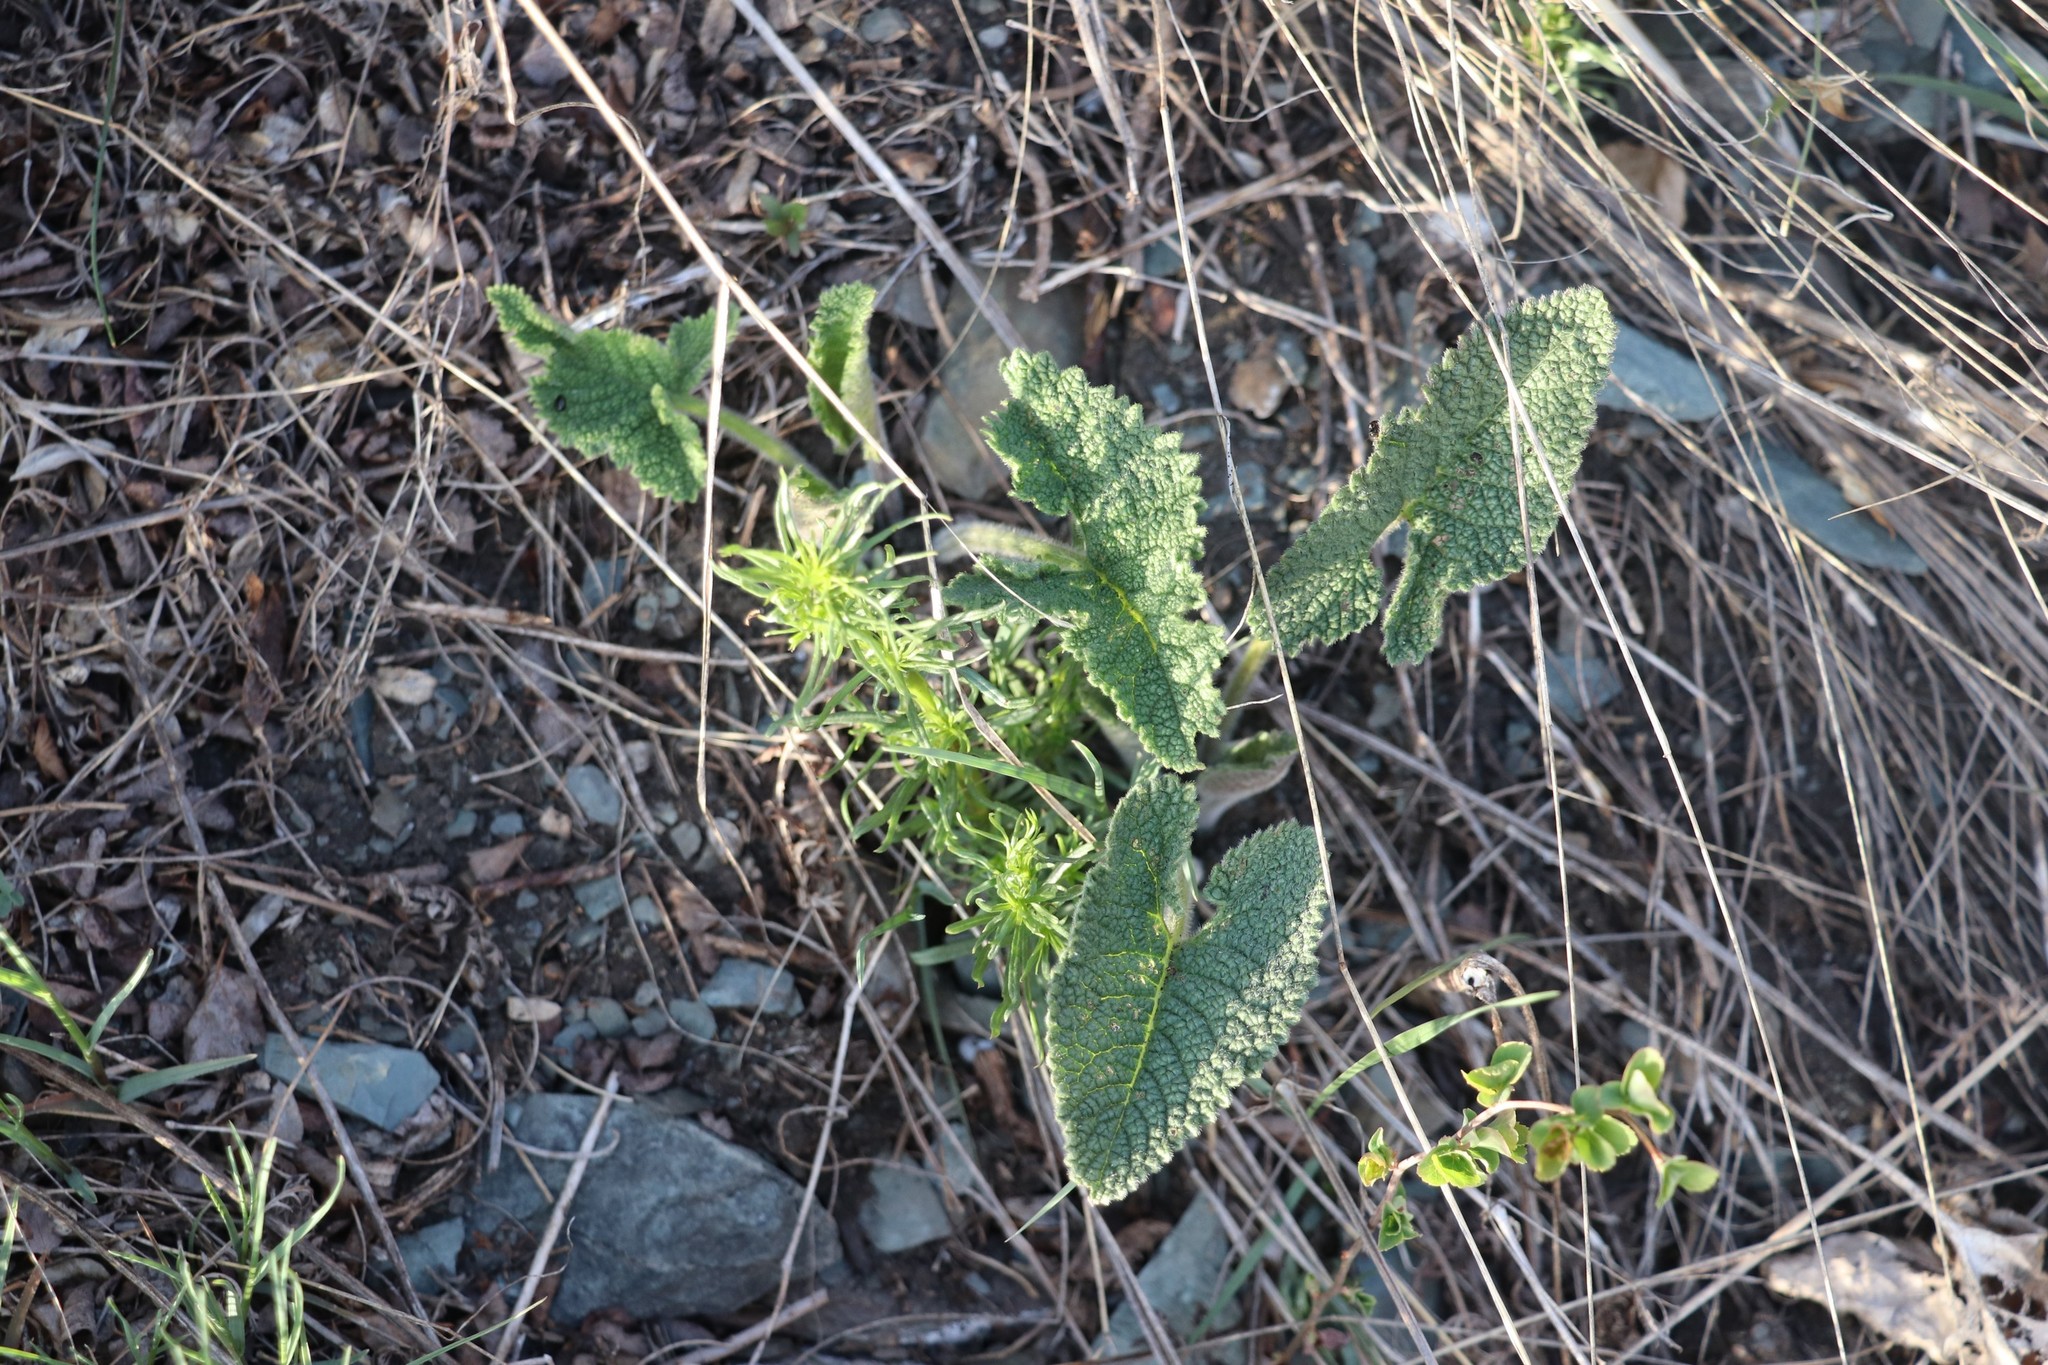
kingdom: Plantae
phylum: Tracheophyta
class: Magnoliopsida
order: Lamiales
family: Lamiaceae
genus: Phlomoides
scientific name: Phlomoides tuberosa
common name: Tuberous jerusalem sage
